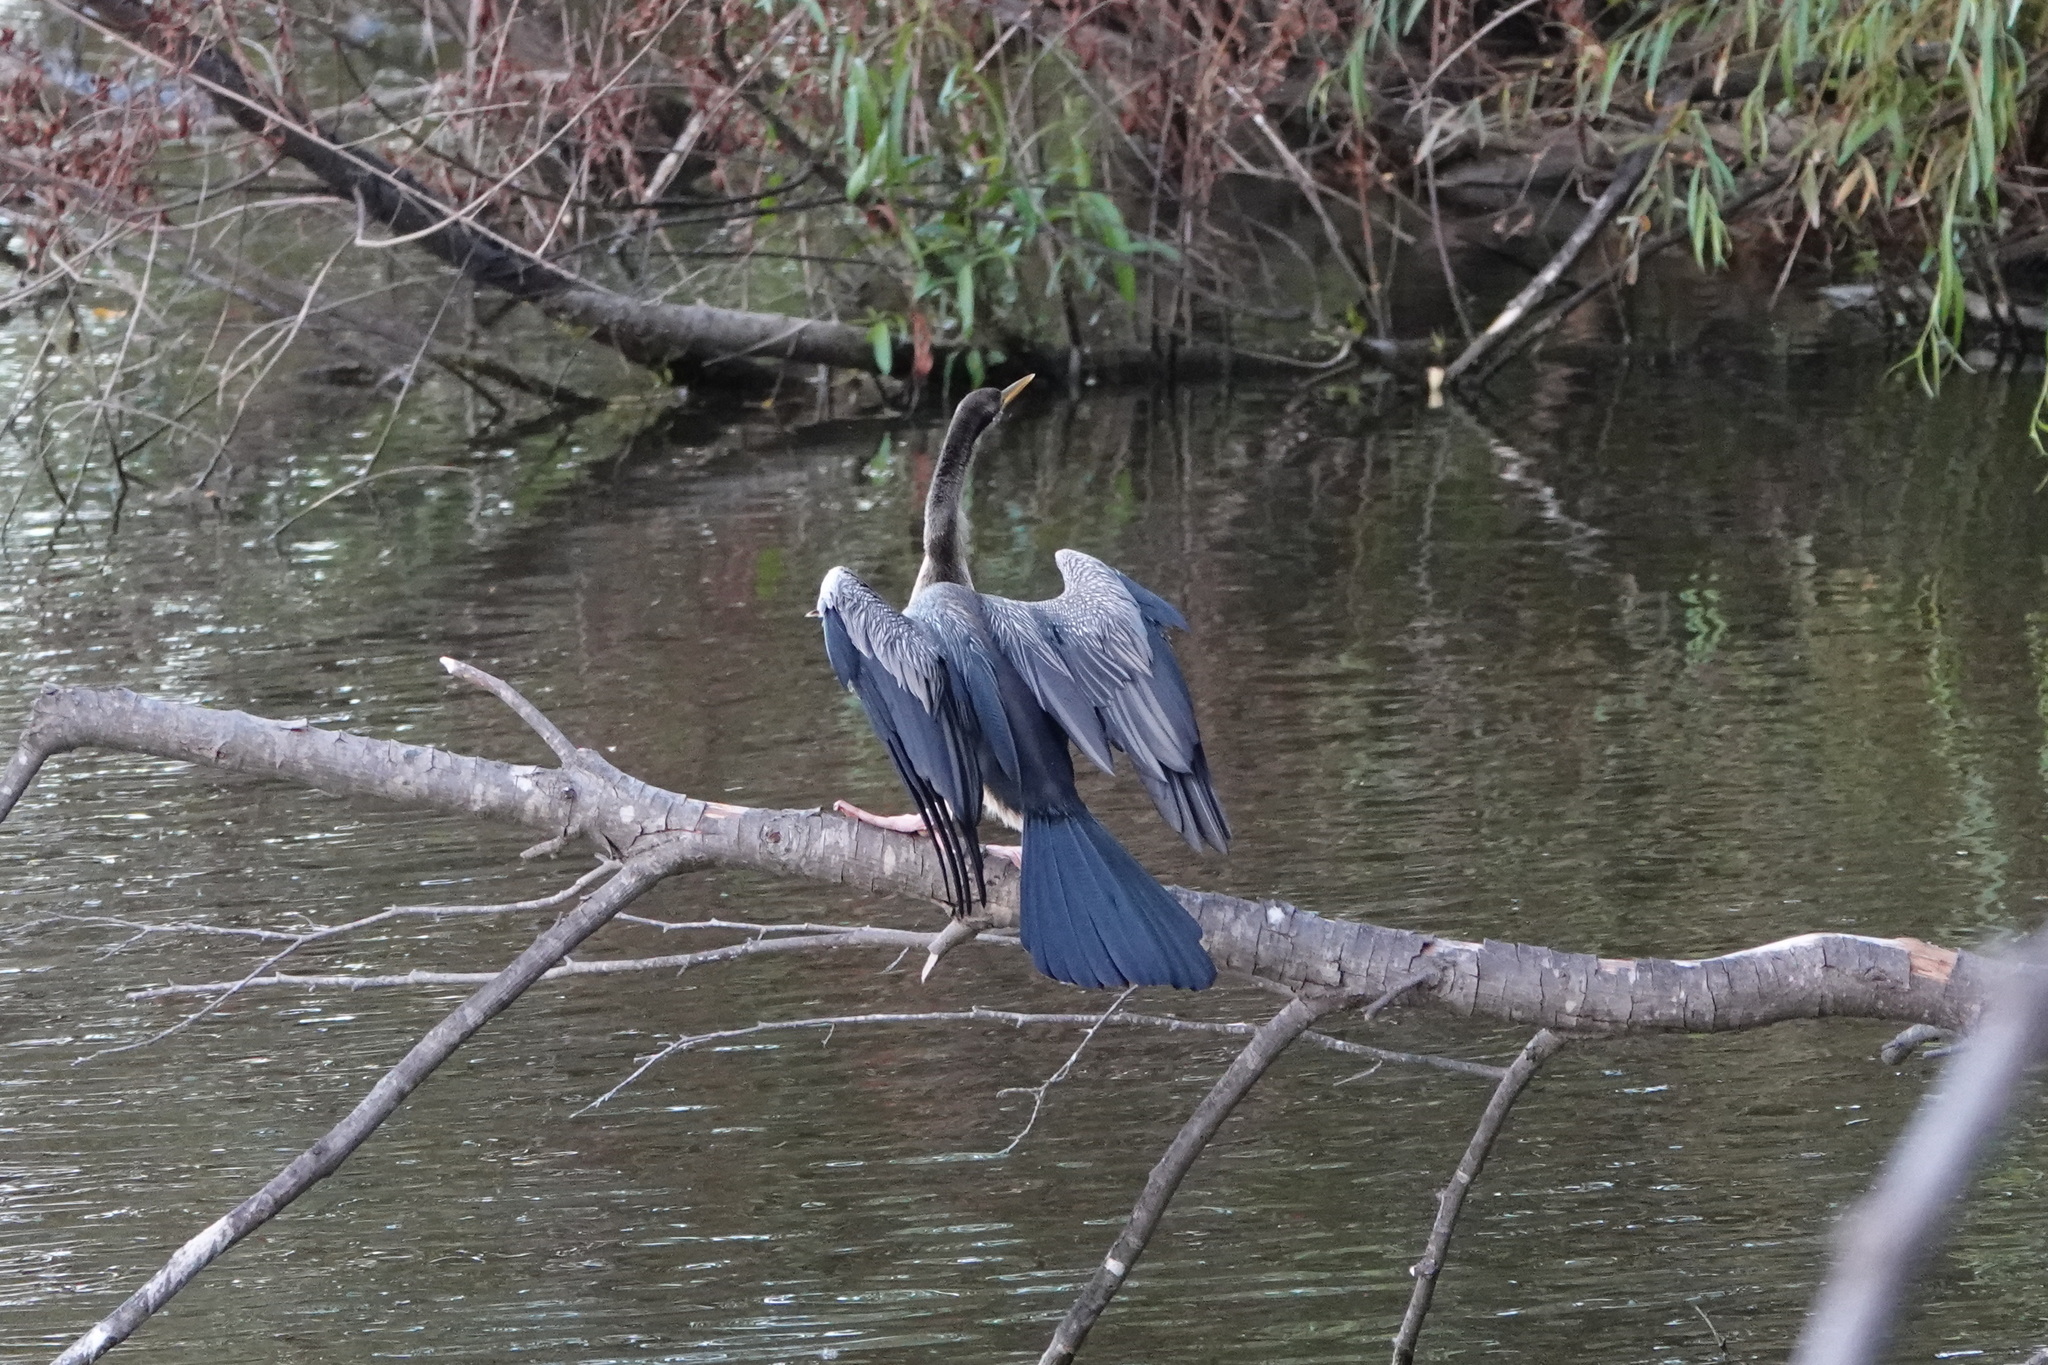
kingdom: Animalia
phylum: Chordata
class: Aves
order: Suliformes
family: Anhingidae
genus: Anhinga
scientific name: Anhinga novaehollandiae
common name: Australasian darter
